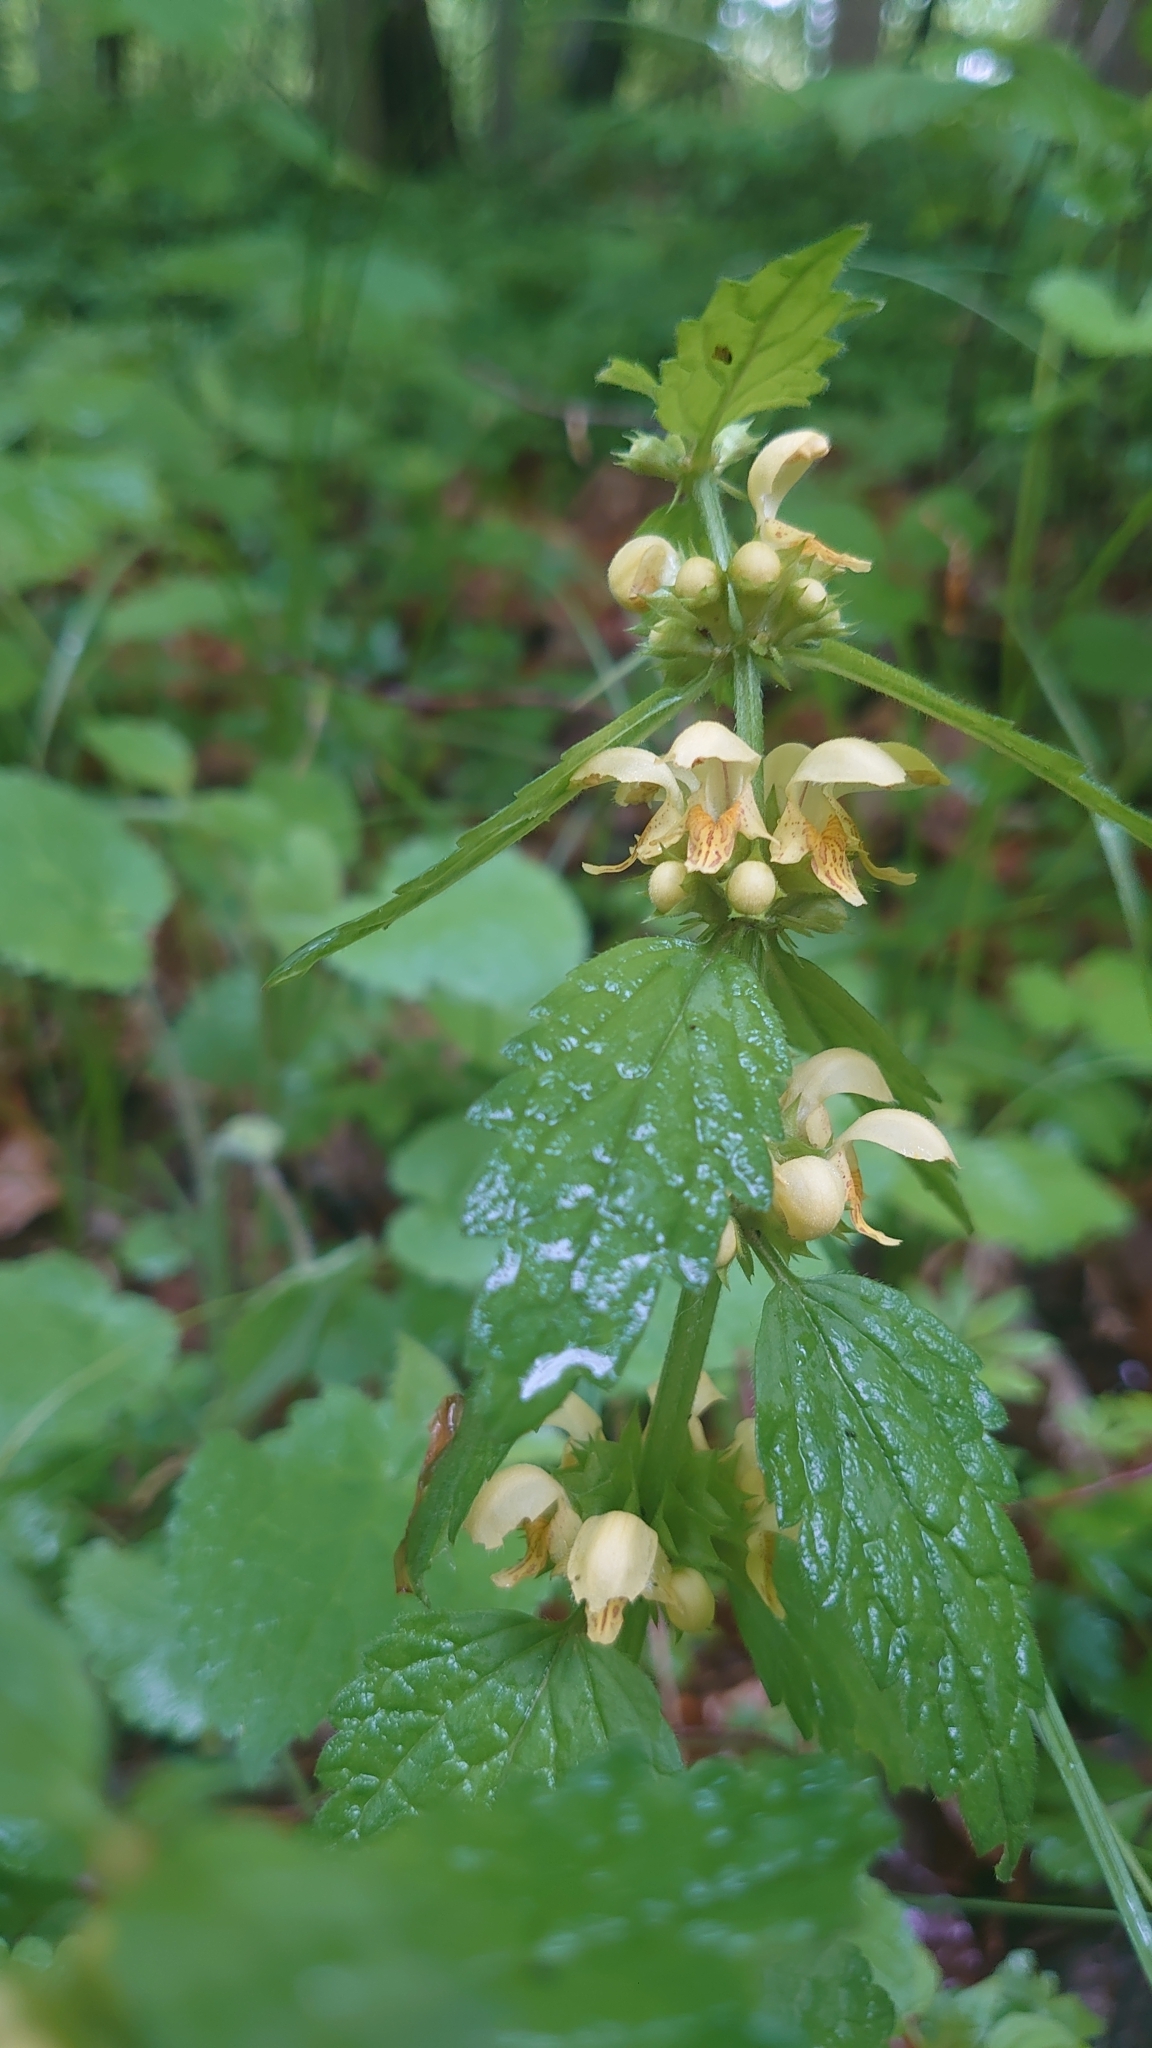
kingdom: Plantae
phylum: Tracheophyta
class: Magnoliopsida
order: Lamiales
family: Lamiaceae
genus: Lamium
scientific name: Lamium galeobdolon
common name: Yellow archangel
